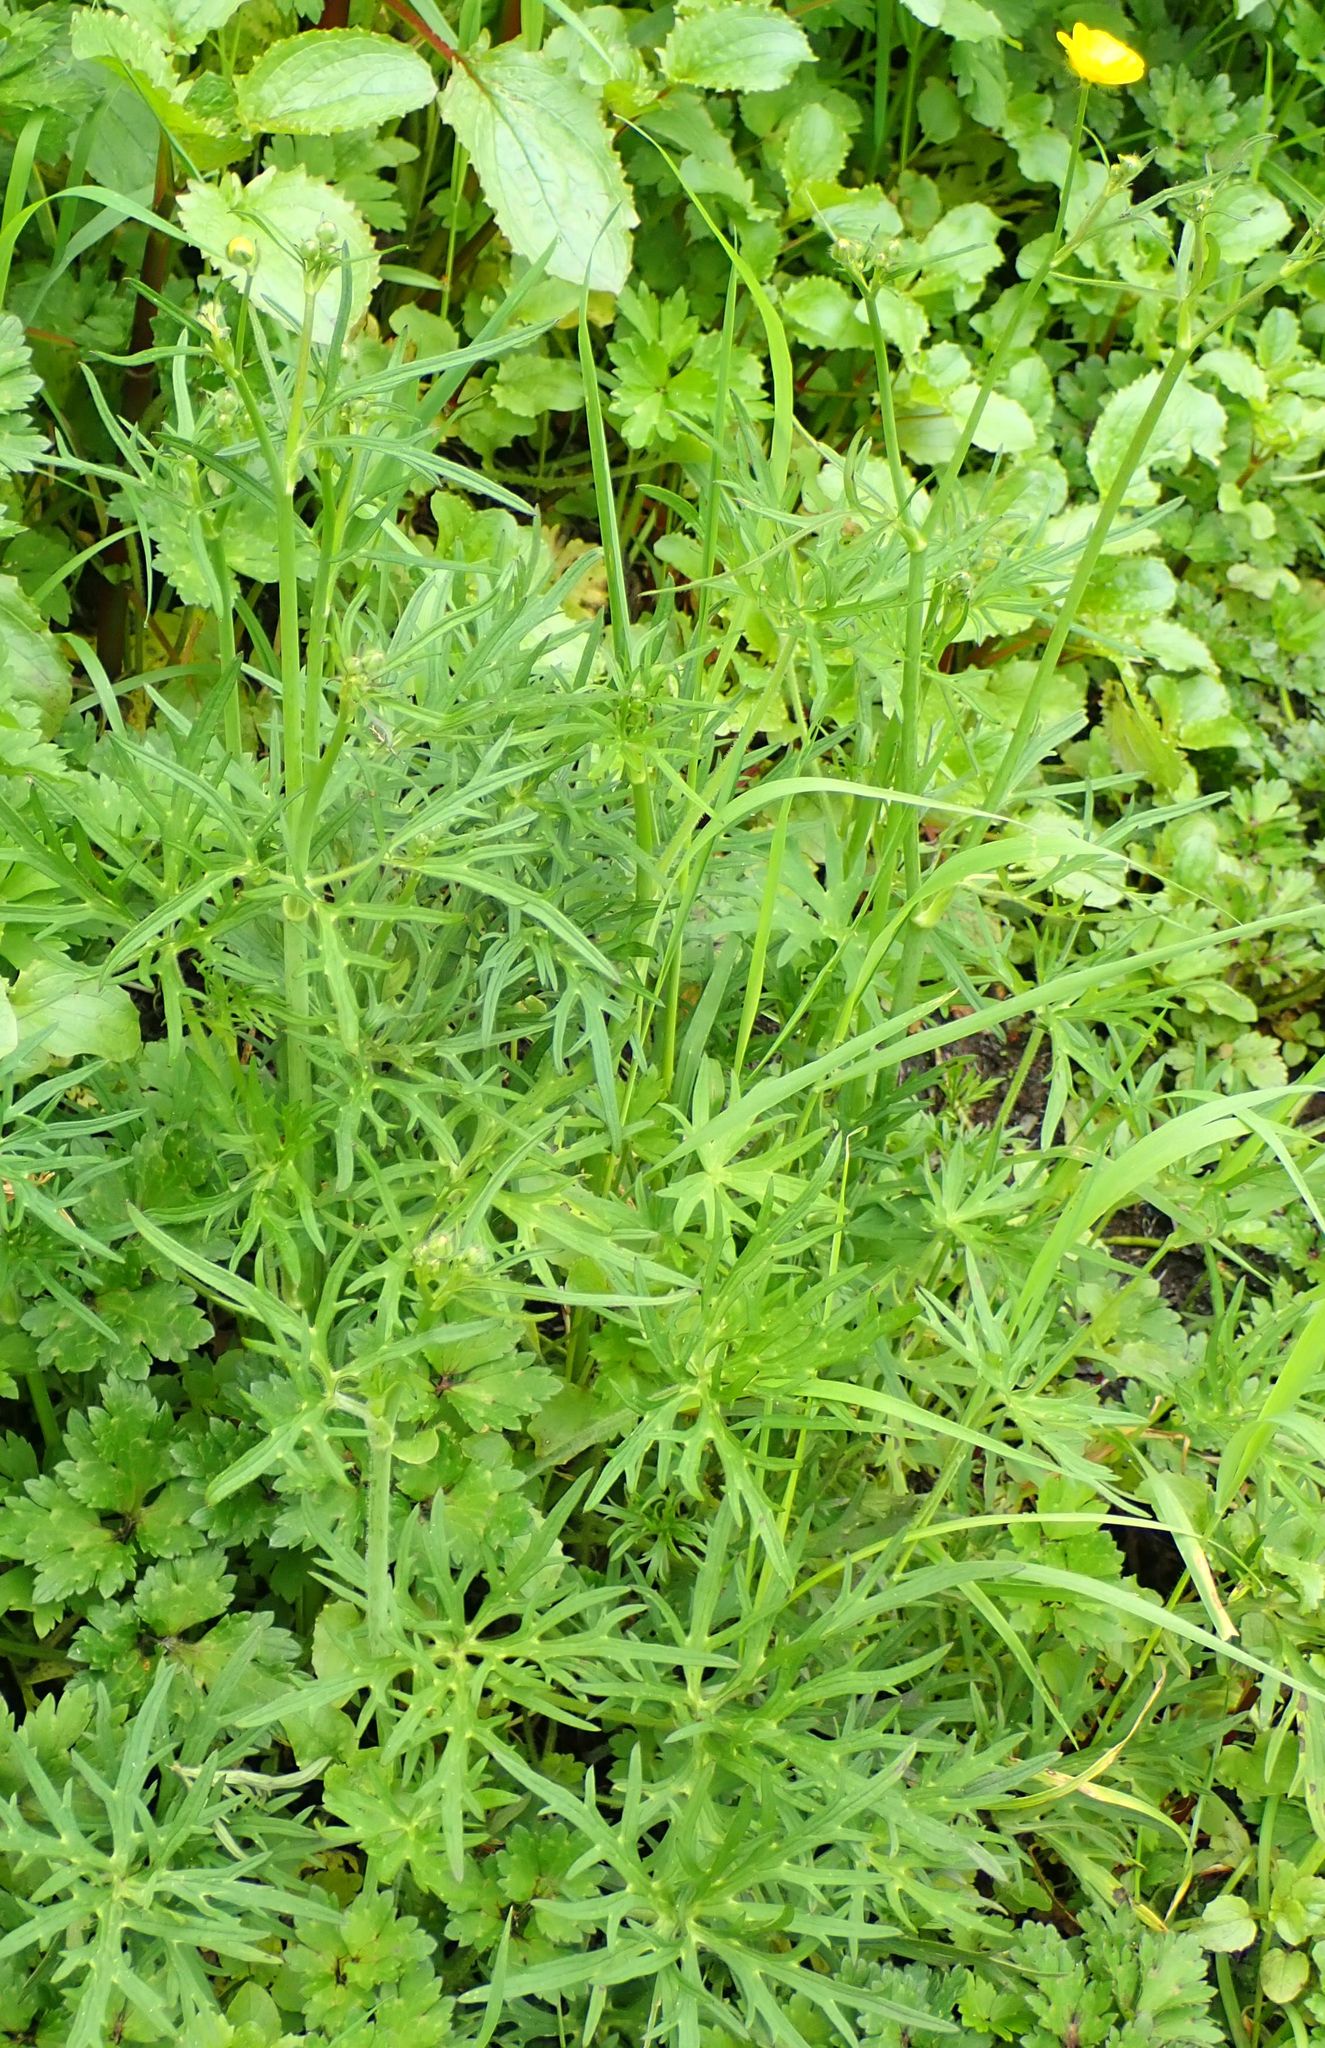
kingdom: Plantae
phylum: Tracheophyta
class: Magnoliopsida
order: Ranunculales
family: Ranunculaceae
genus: Ranunculus
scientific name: Ranunculus acris
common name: Meadow buttercup
